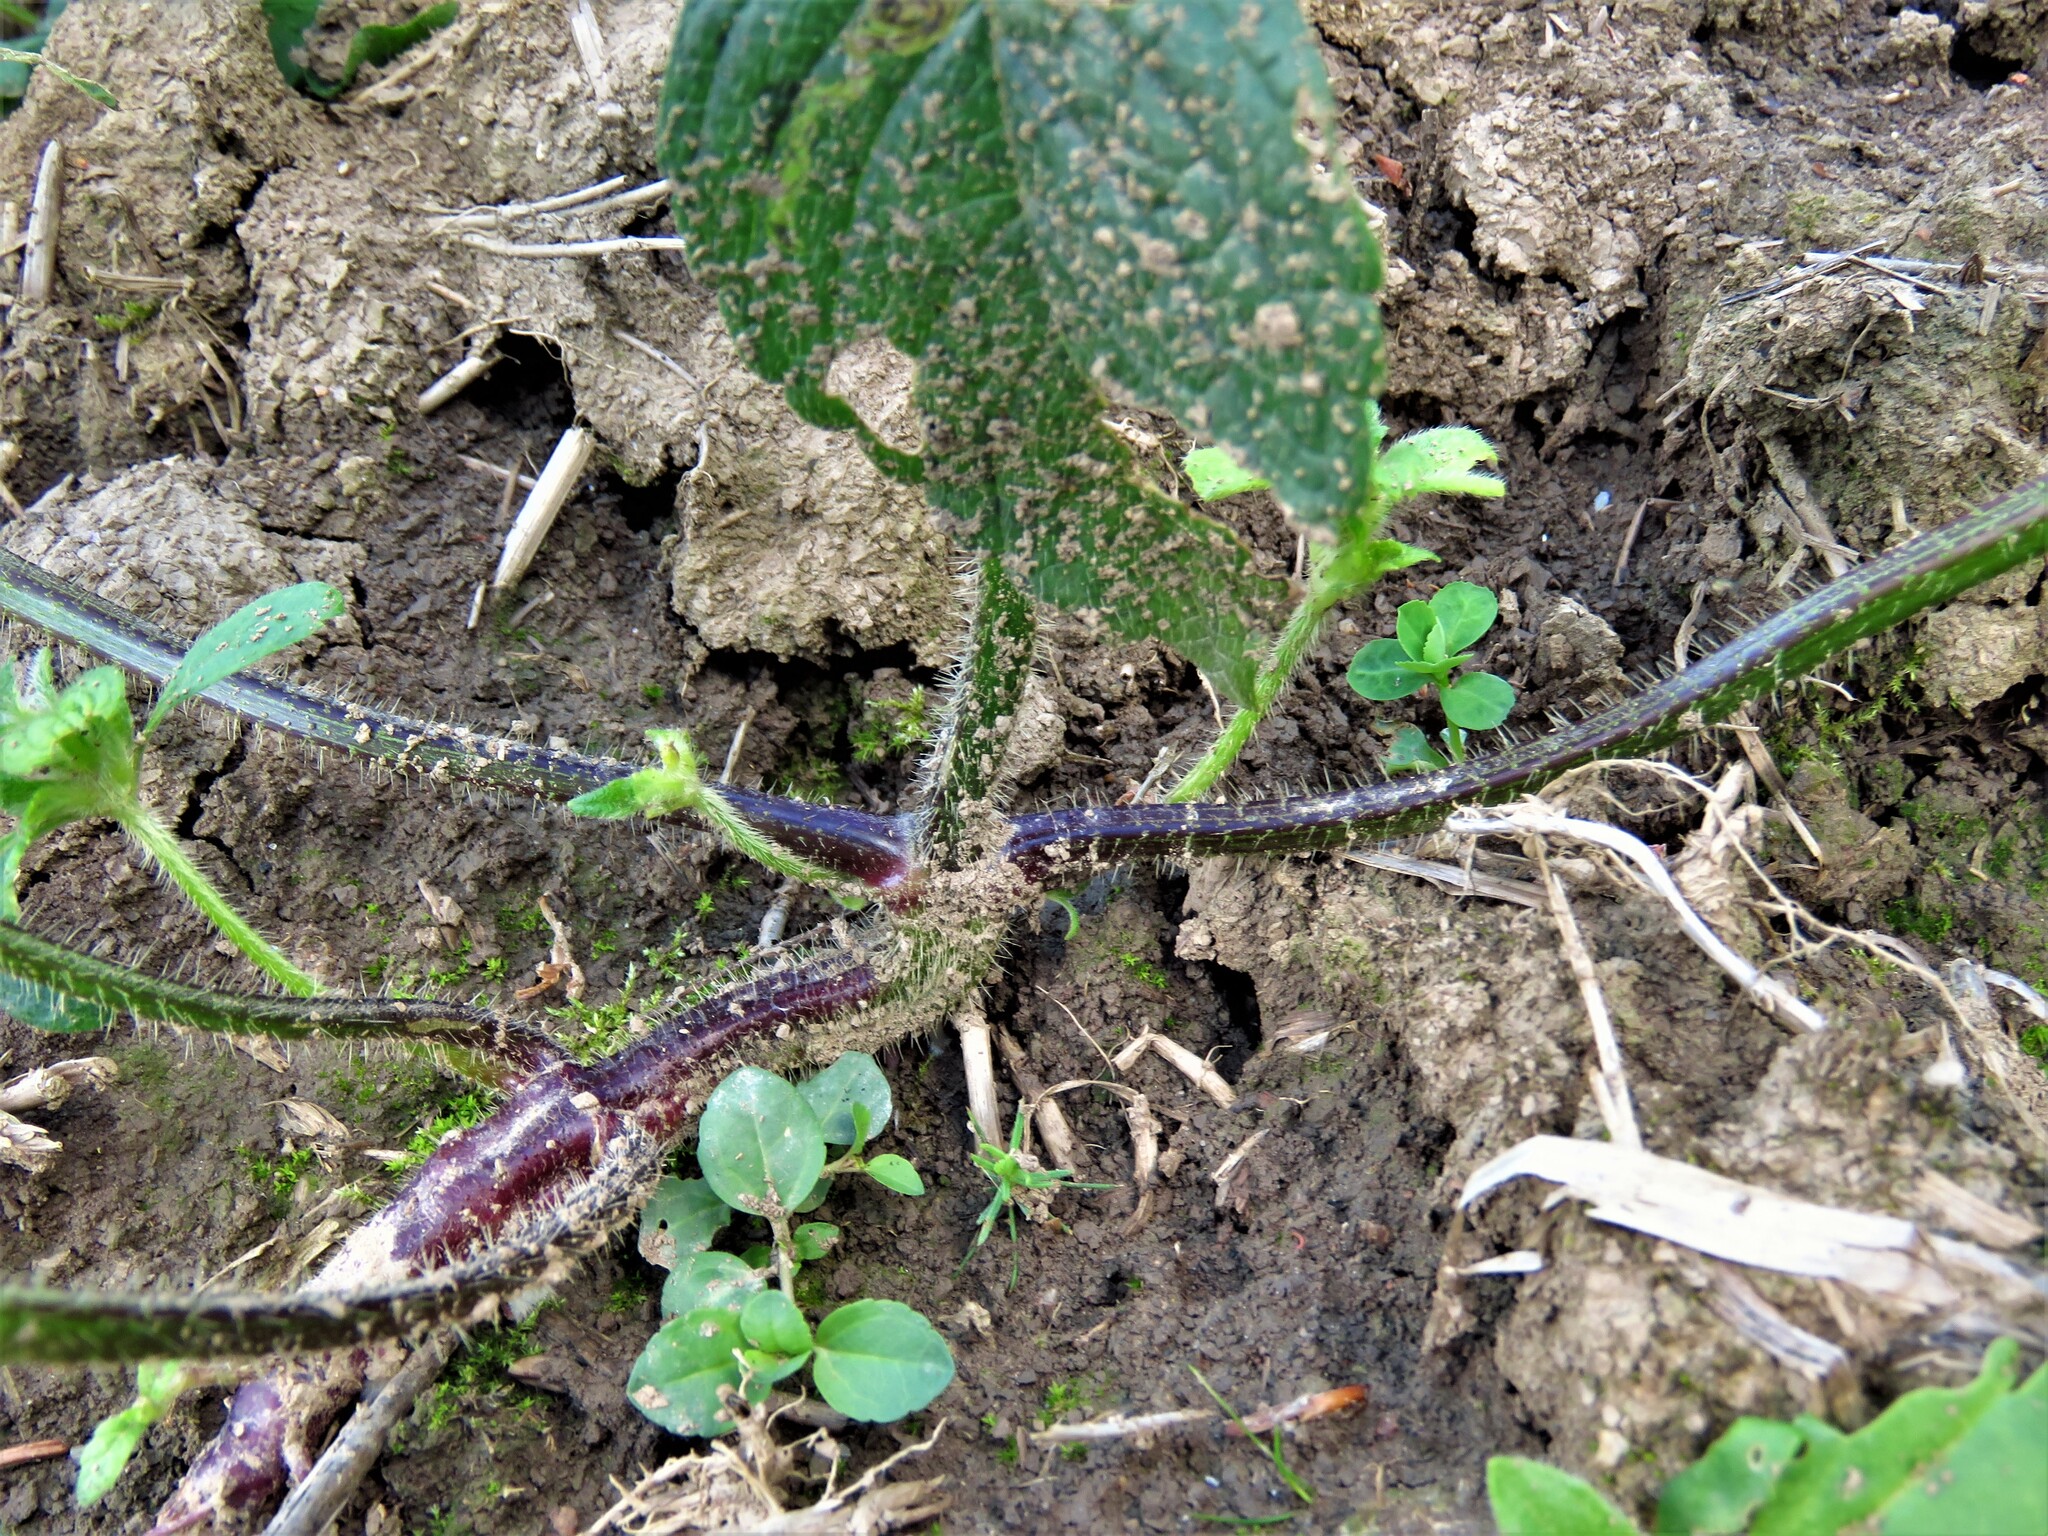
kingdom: Plantae
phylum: Tracheophyta
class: Magnoliopsida
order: Lamiales
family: Lamiaceae
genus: Galeopsis
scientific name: Galeopsis tetrahit
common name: Common hemp-nettle
